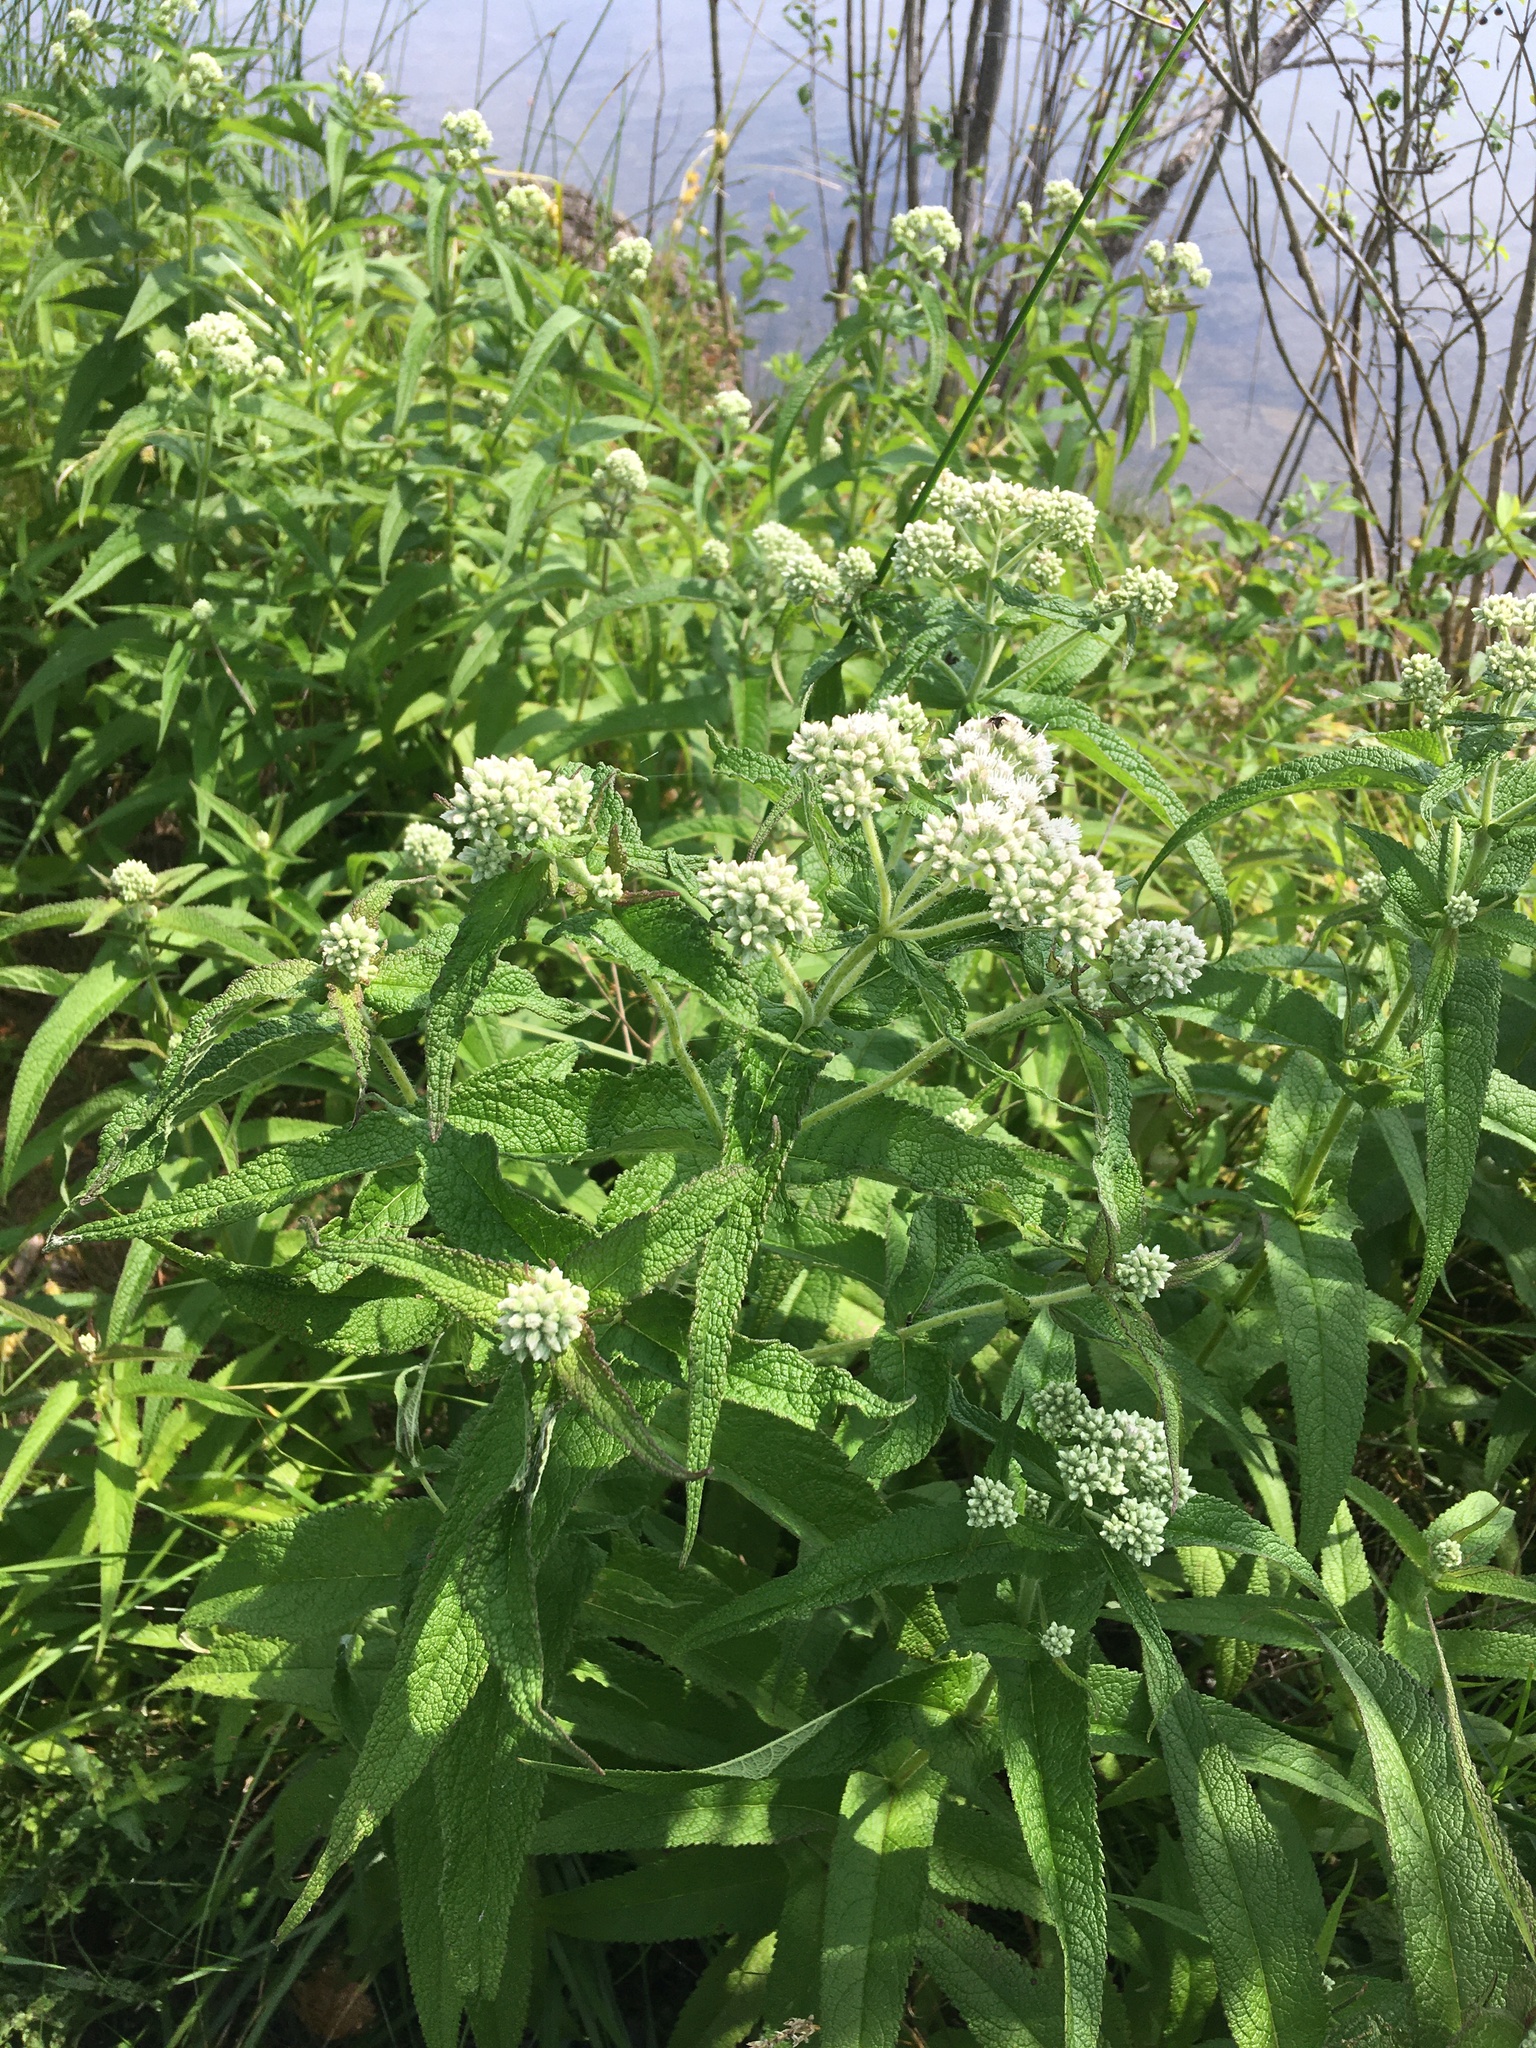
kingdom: Plantae
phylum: Tracheophyta
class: Magnoliopsida
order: Asterales
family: Asteraceae
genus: Eupatorium
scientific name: Eupatorium perfoliatum
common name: Boneset
